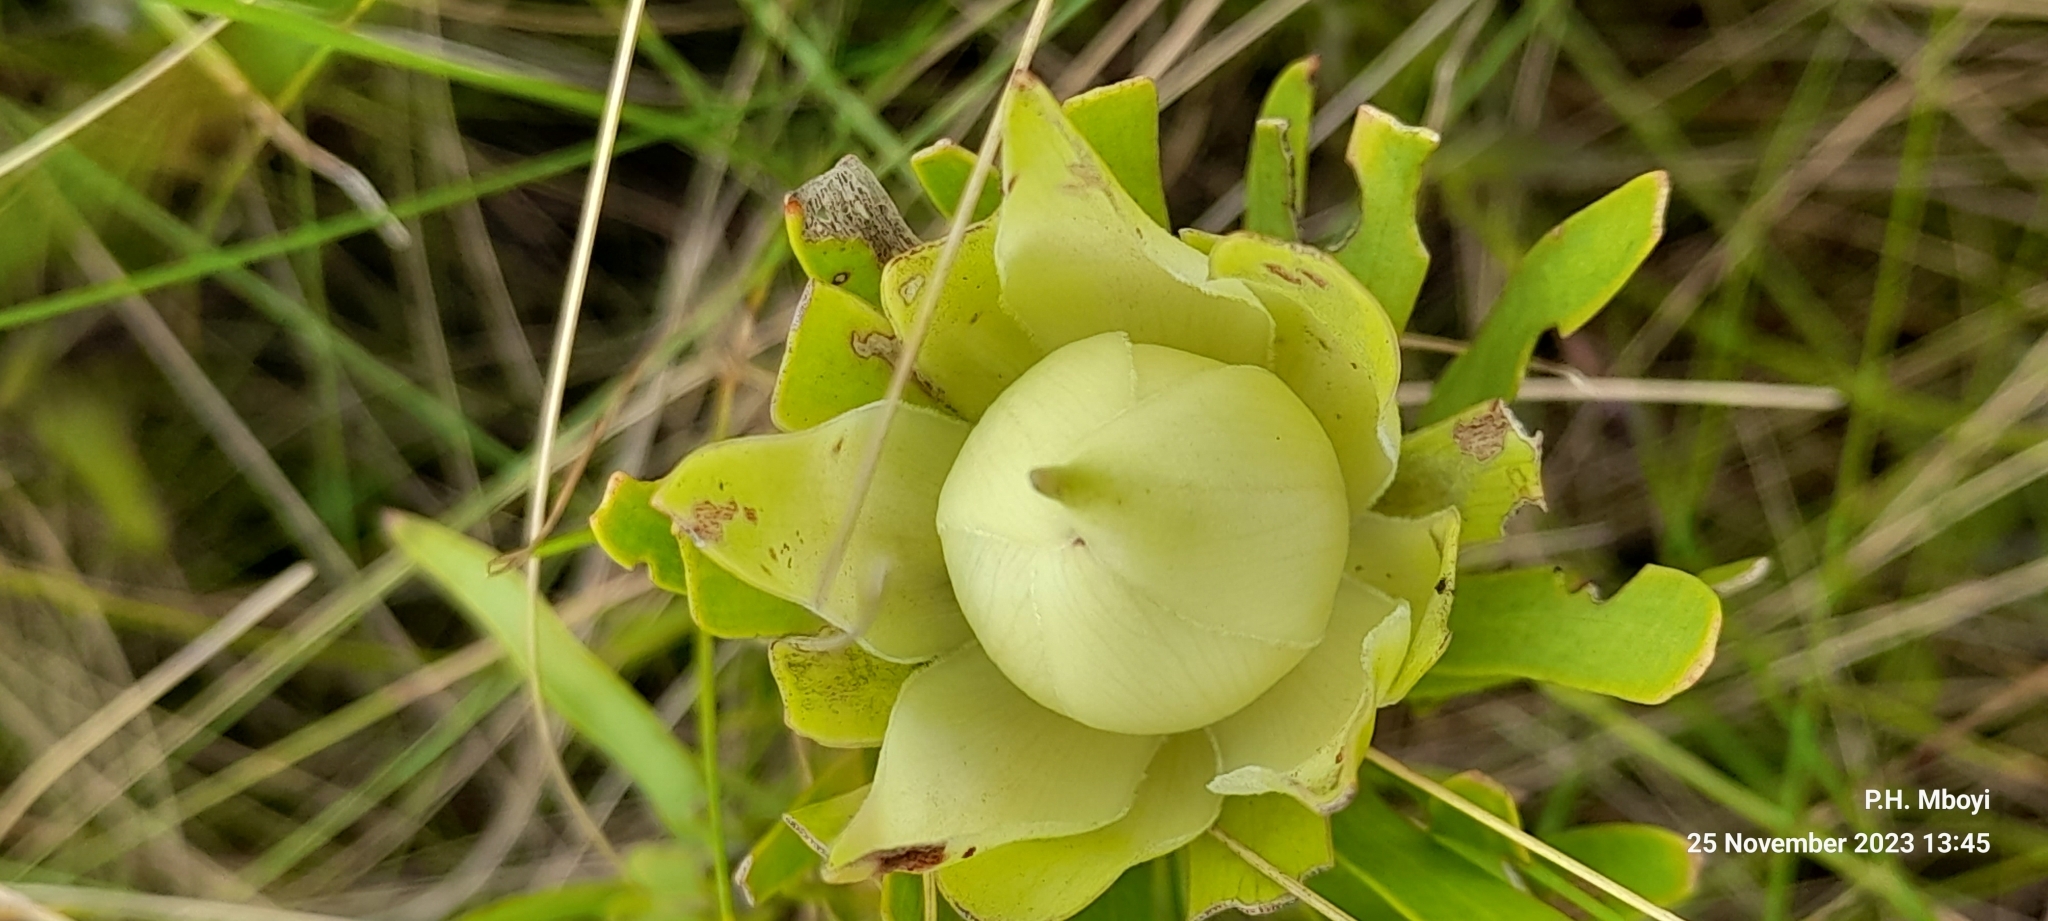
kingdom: Plantae
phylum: Tracheophyta
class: Magnoliopsida
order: Proteales
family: Proteaceae
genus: Leucadendron
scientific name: Leucadendron spissifolium
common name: Spear-leaf conebush
